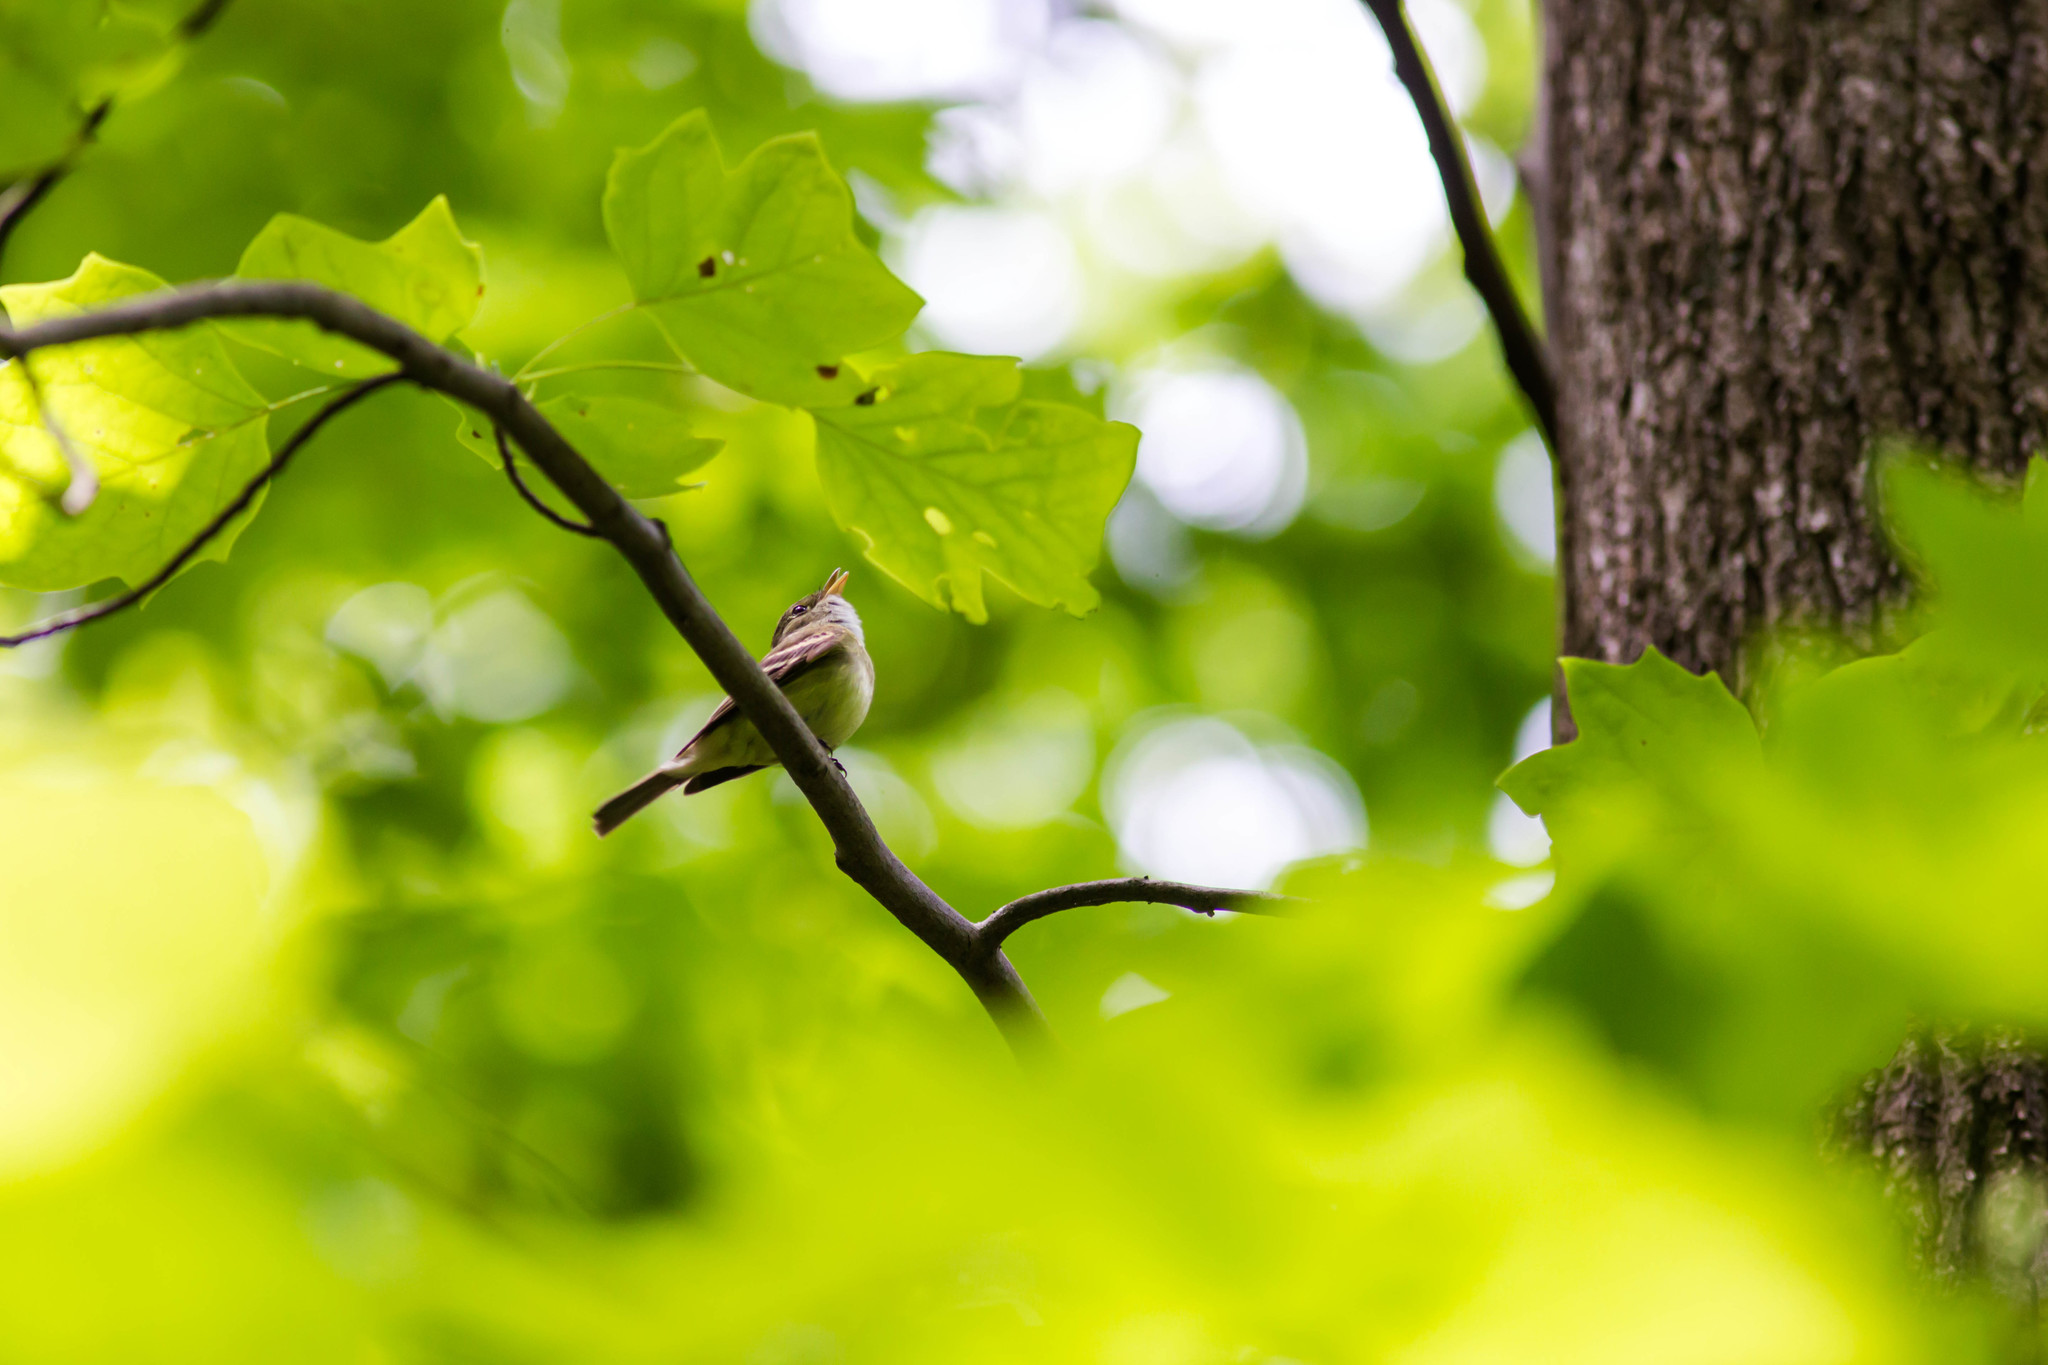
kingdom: Animalia
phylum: Chordata
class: Aves
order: Passeriformes
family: Tyrannidae
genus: Empidonax
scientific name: Empidonax virescens
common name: Acadian flycatcher
